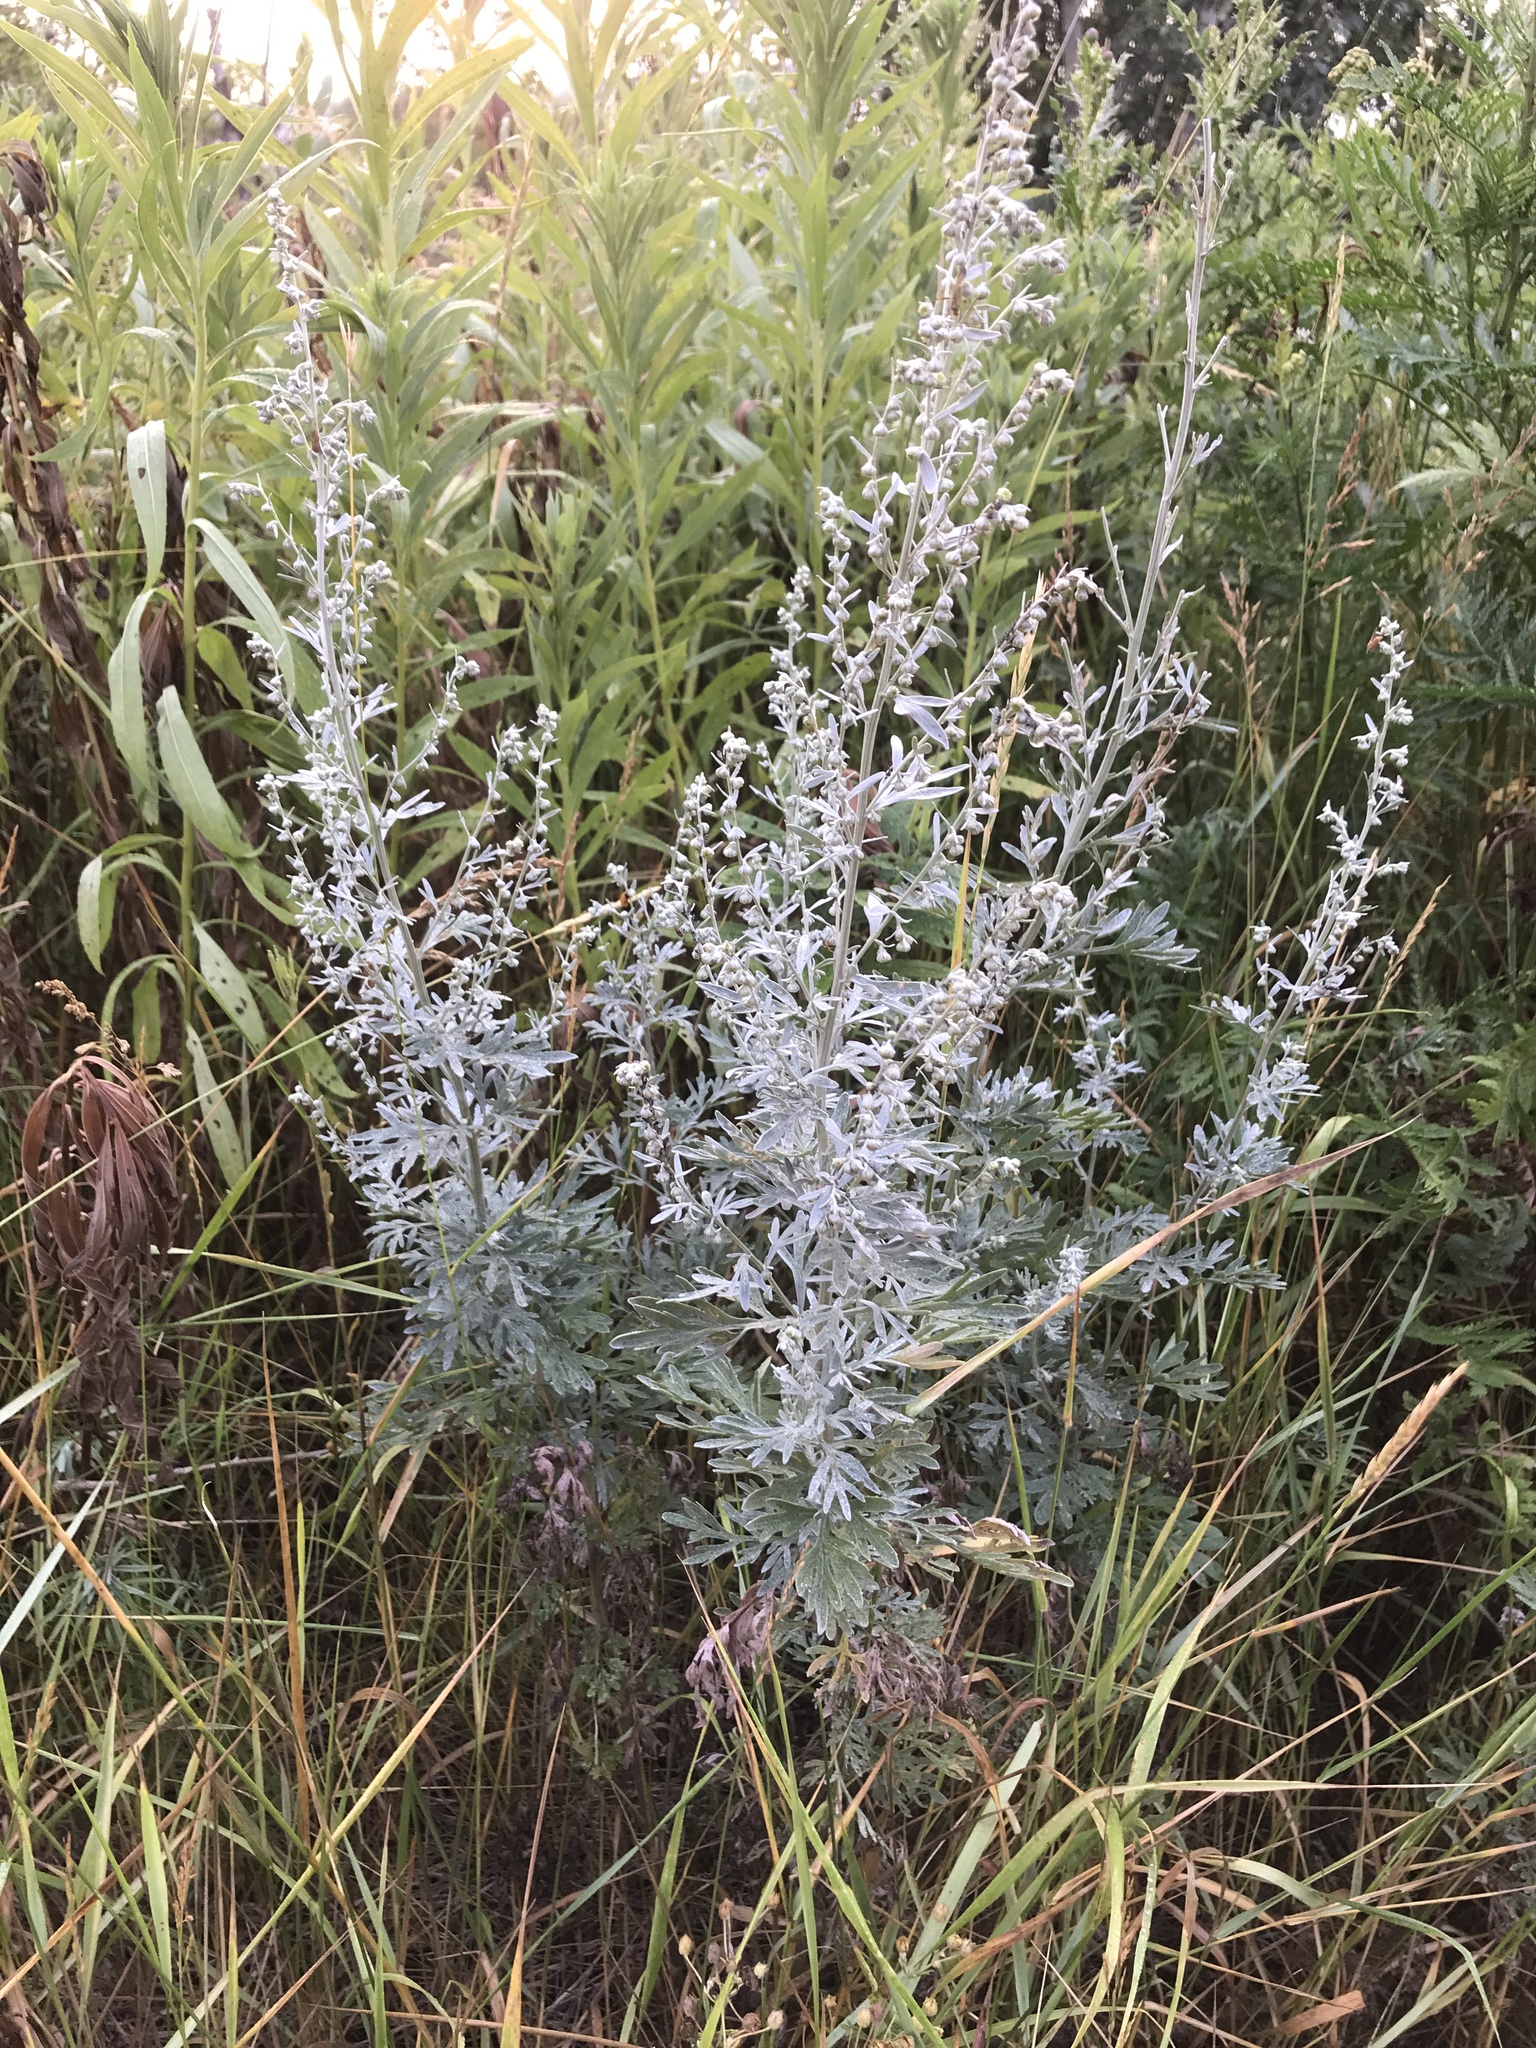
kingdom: Plantae
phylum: Tracheophyta
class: Magnoliopsida
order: Asterales
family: Asteraceae
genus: Artemisia
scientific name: Artemisia absinthium
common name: Wormwood
